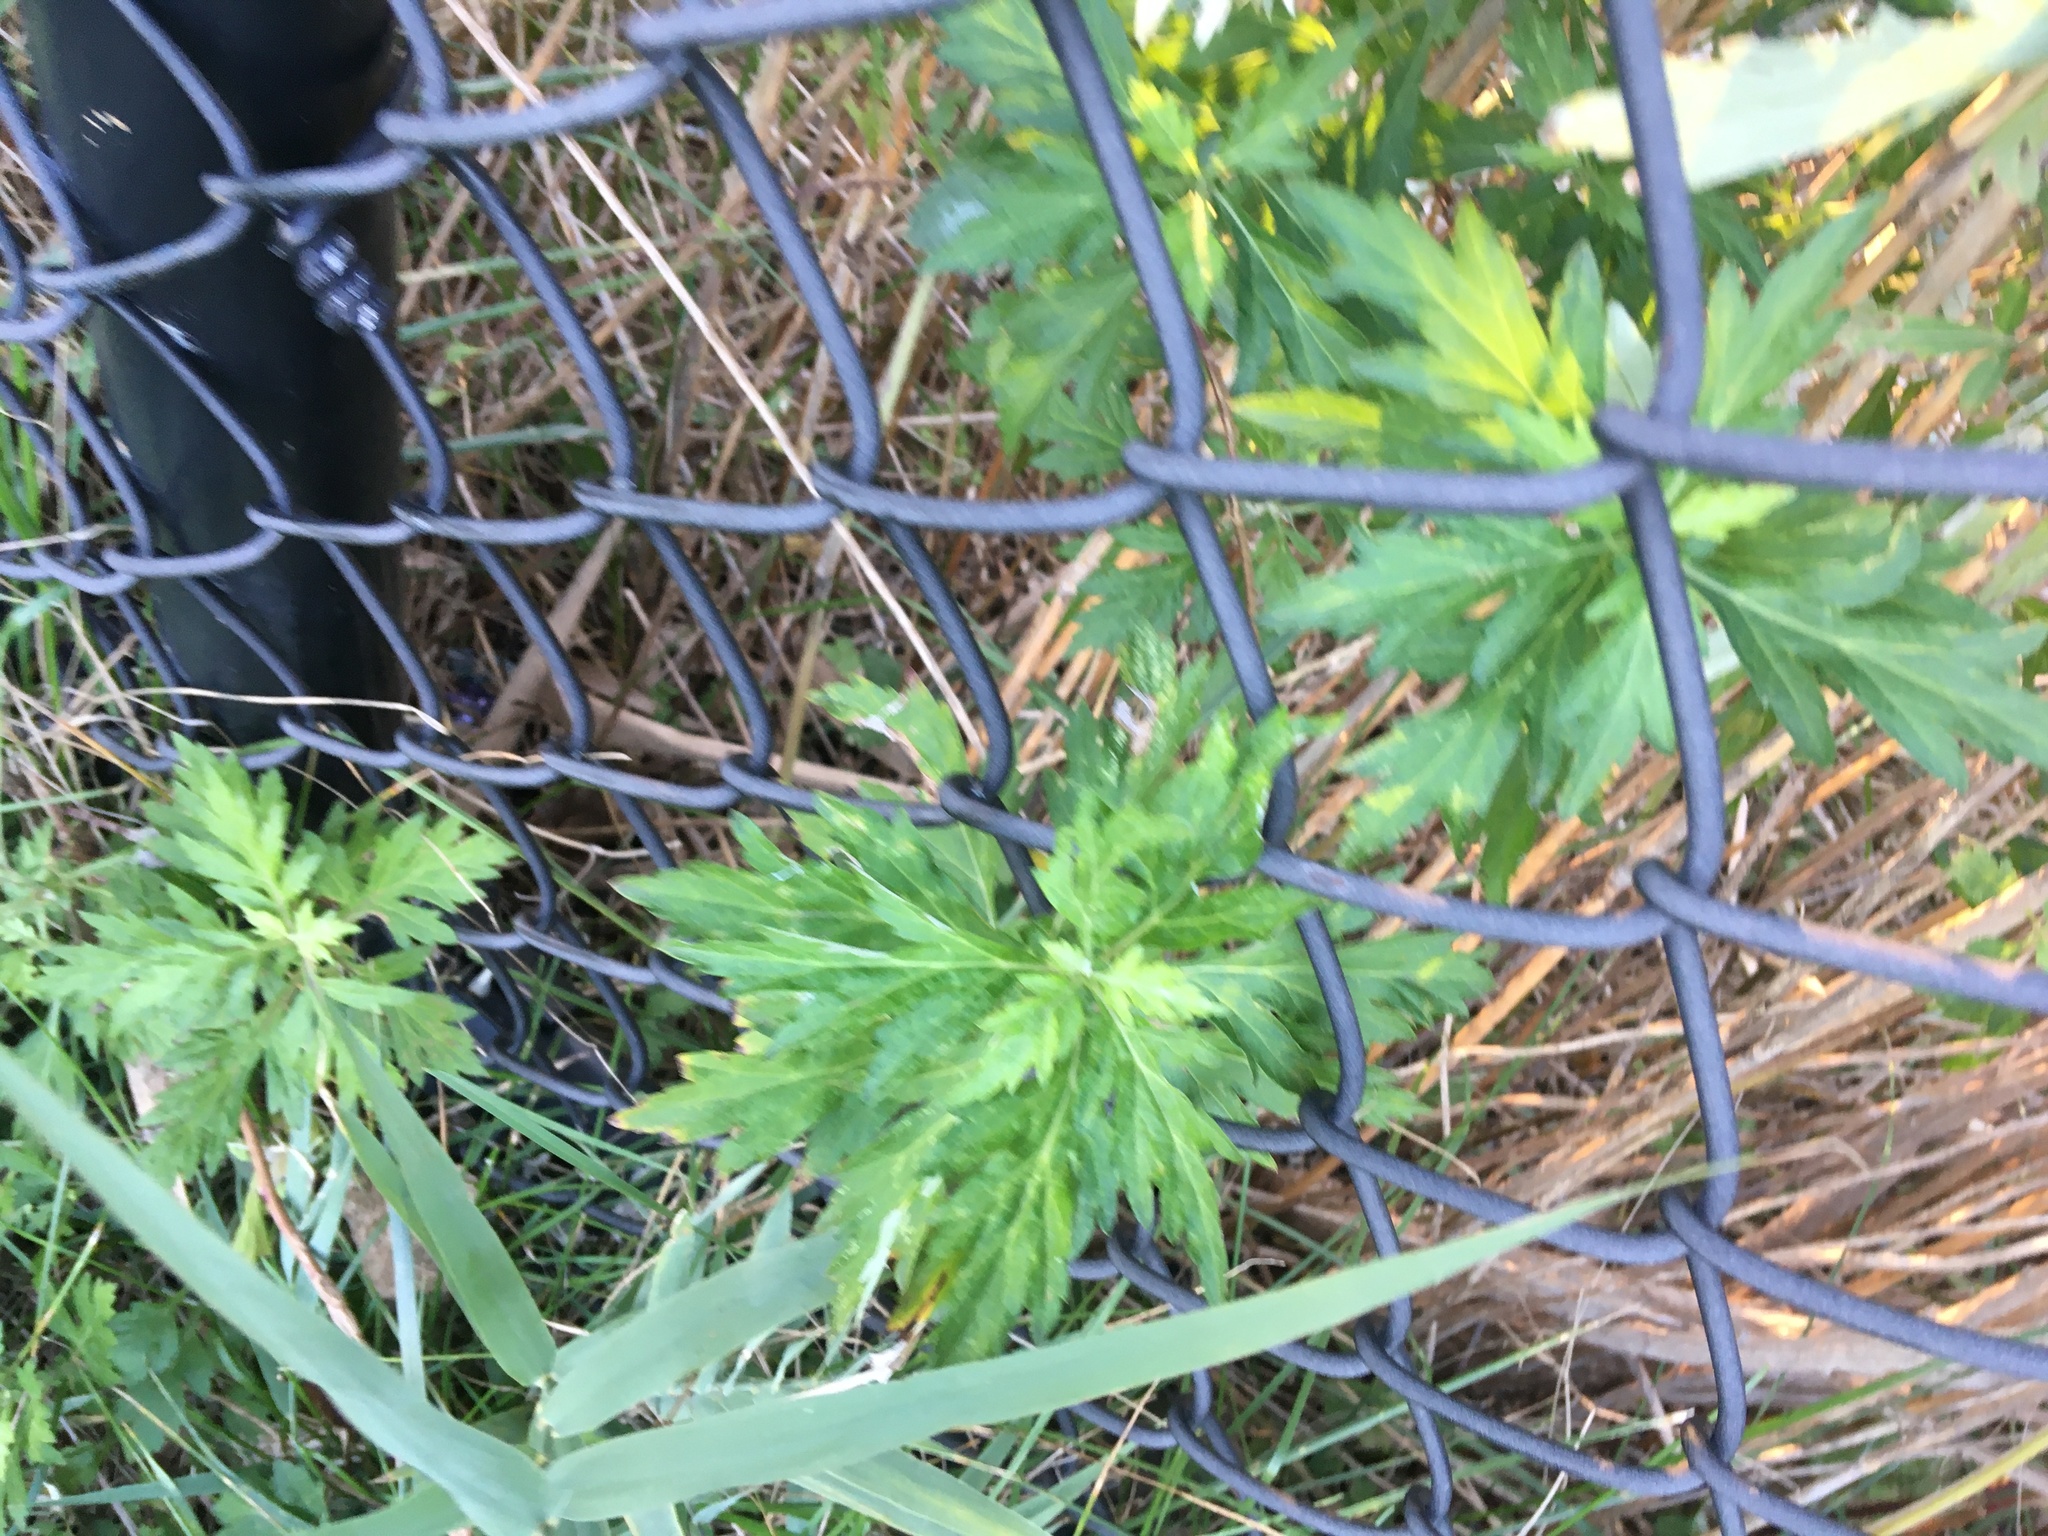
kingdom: Plantae
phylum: Tracheophyta
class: Magnoliopsida
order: Asterales
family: Asteraceae
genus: Artemisia
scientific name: Artemisia vulgaris
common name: Mugwort
